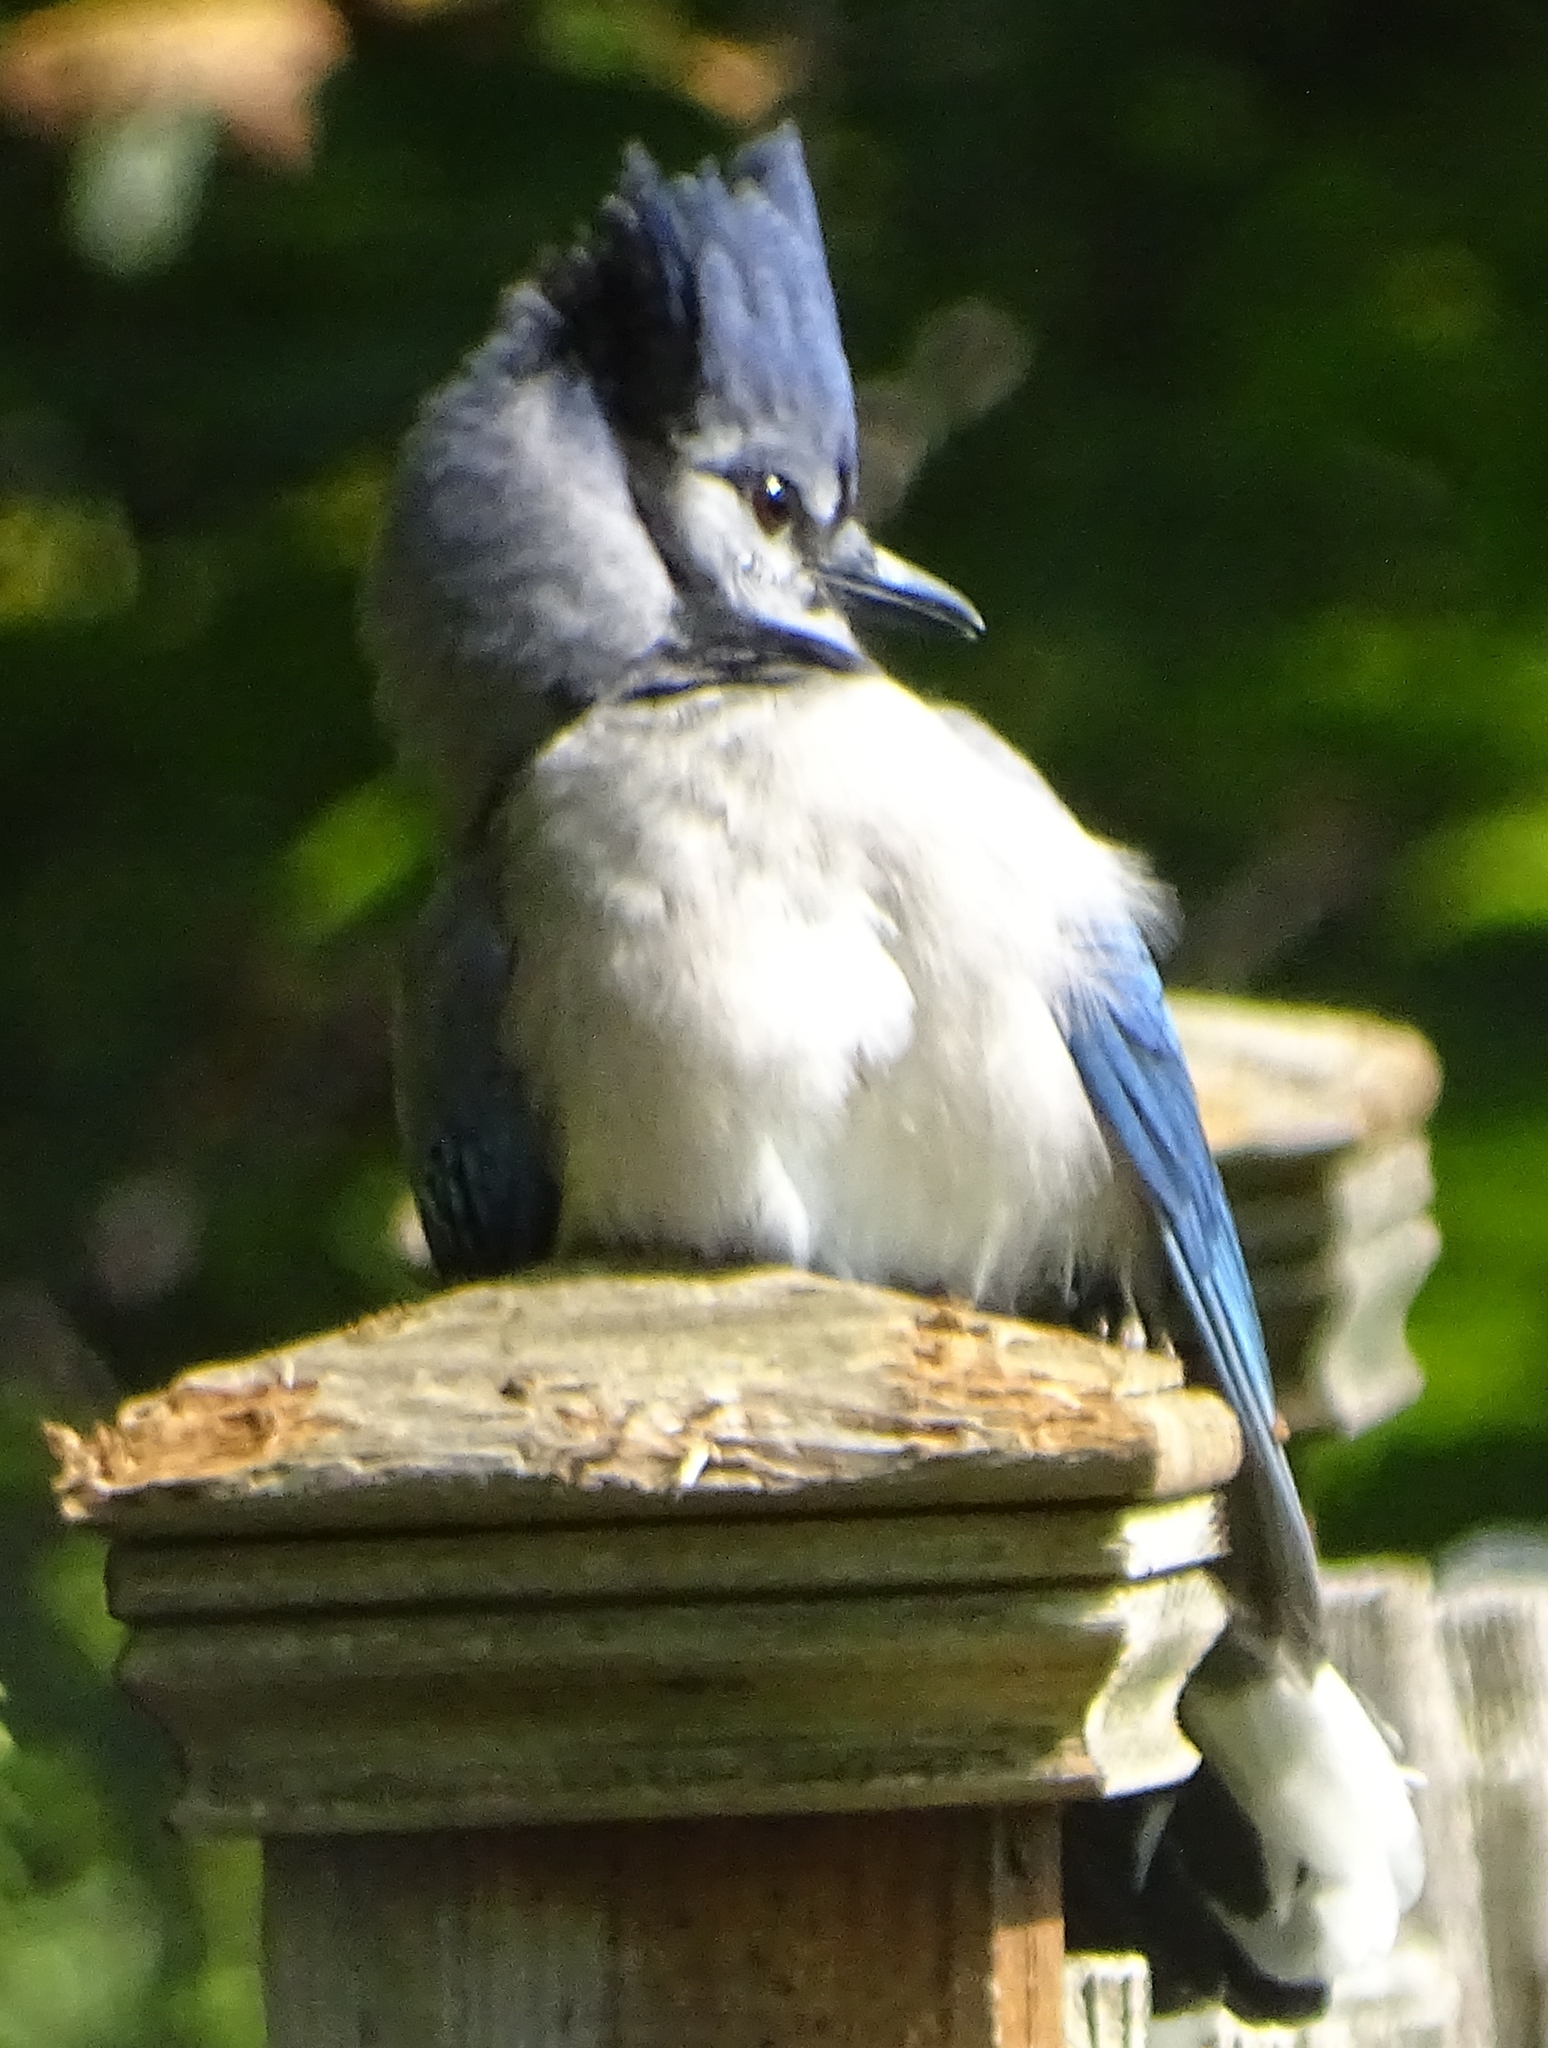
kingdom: Animalia
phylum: Chordata
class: Aves
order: Passeriformes
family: Corvidae
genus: Cyanocitta
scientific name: Cyanocitta cristata
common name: Blue jay
